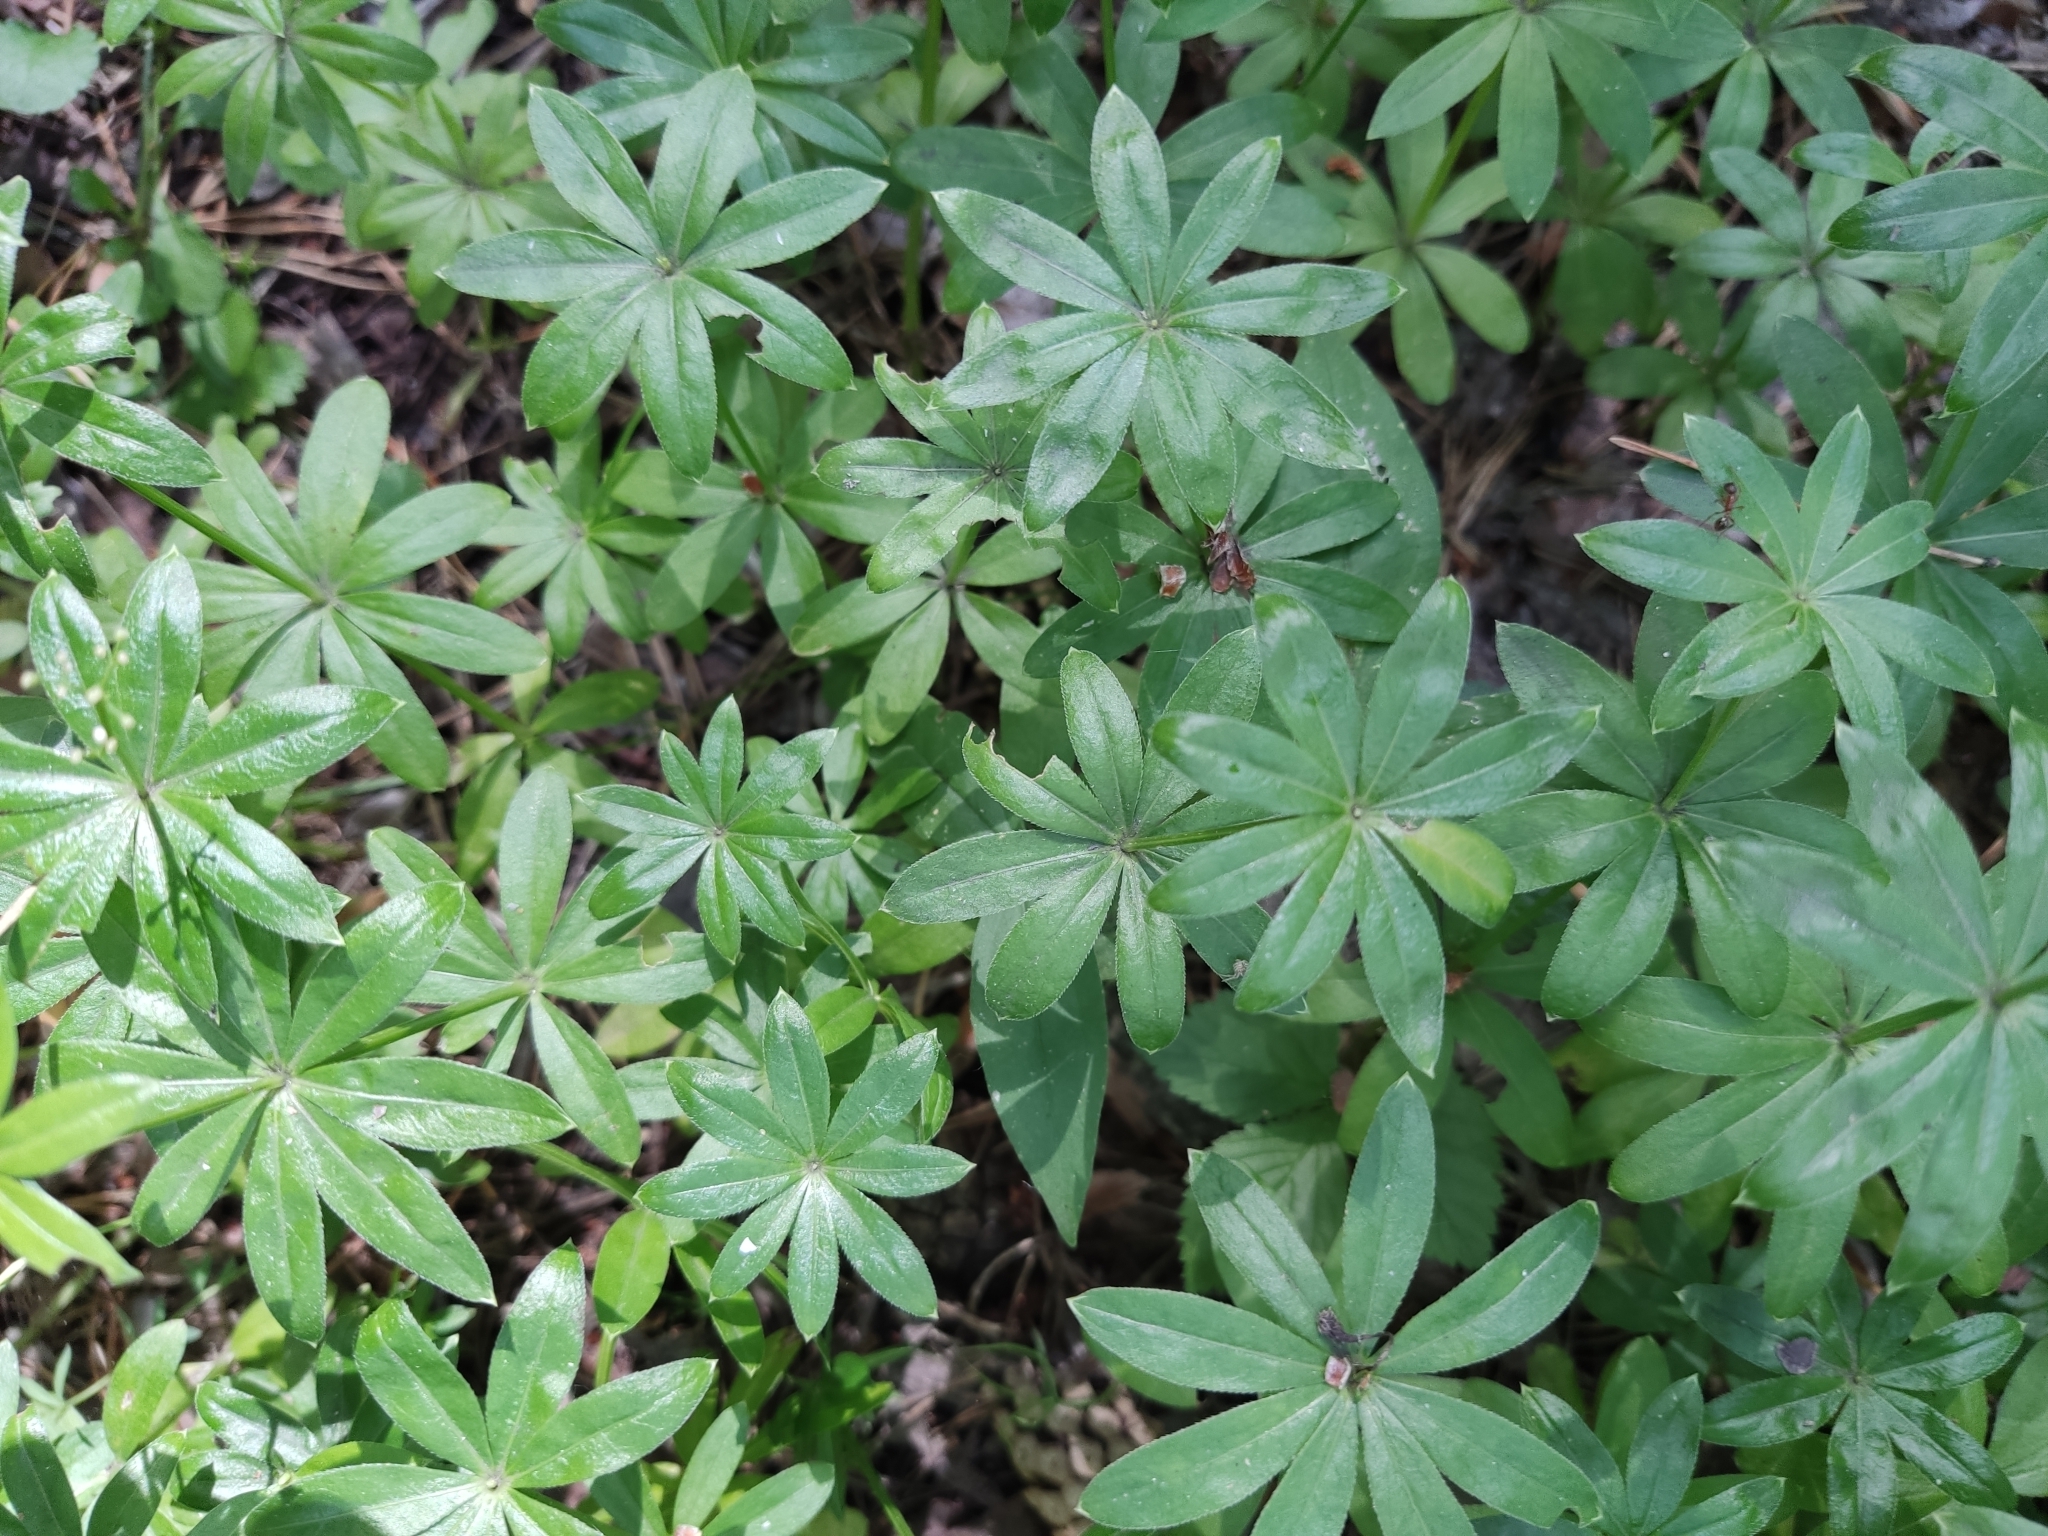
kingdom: Plantae
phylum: Tracheophyta
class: Magnoliopsida
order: Gentianales
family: Rubiaceae
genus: Galium
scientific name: Galium odoratum
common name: Sweet woodruff
